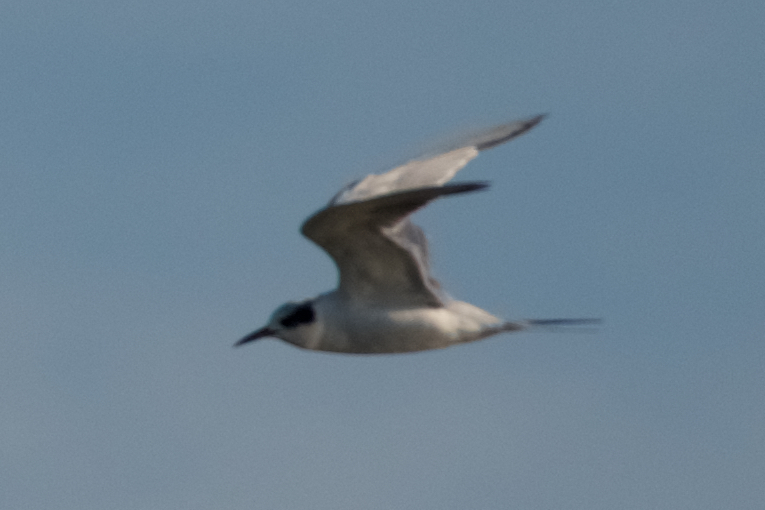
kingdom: Animalia
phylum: Chordata
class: Aves
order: Charadriiformes
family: Laridae
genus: Sterna
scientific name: Sterna forsteri
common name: Forster's tern
